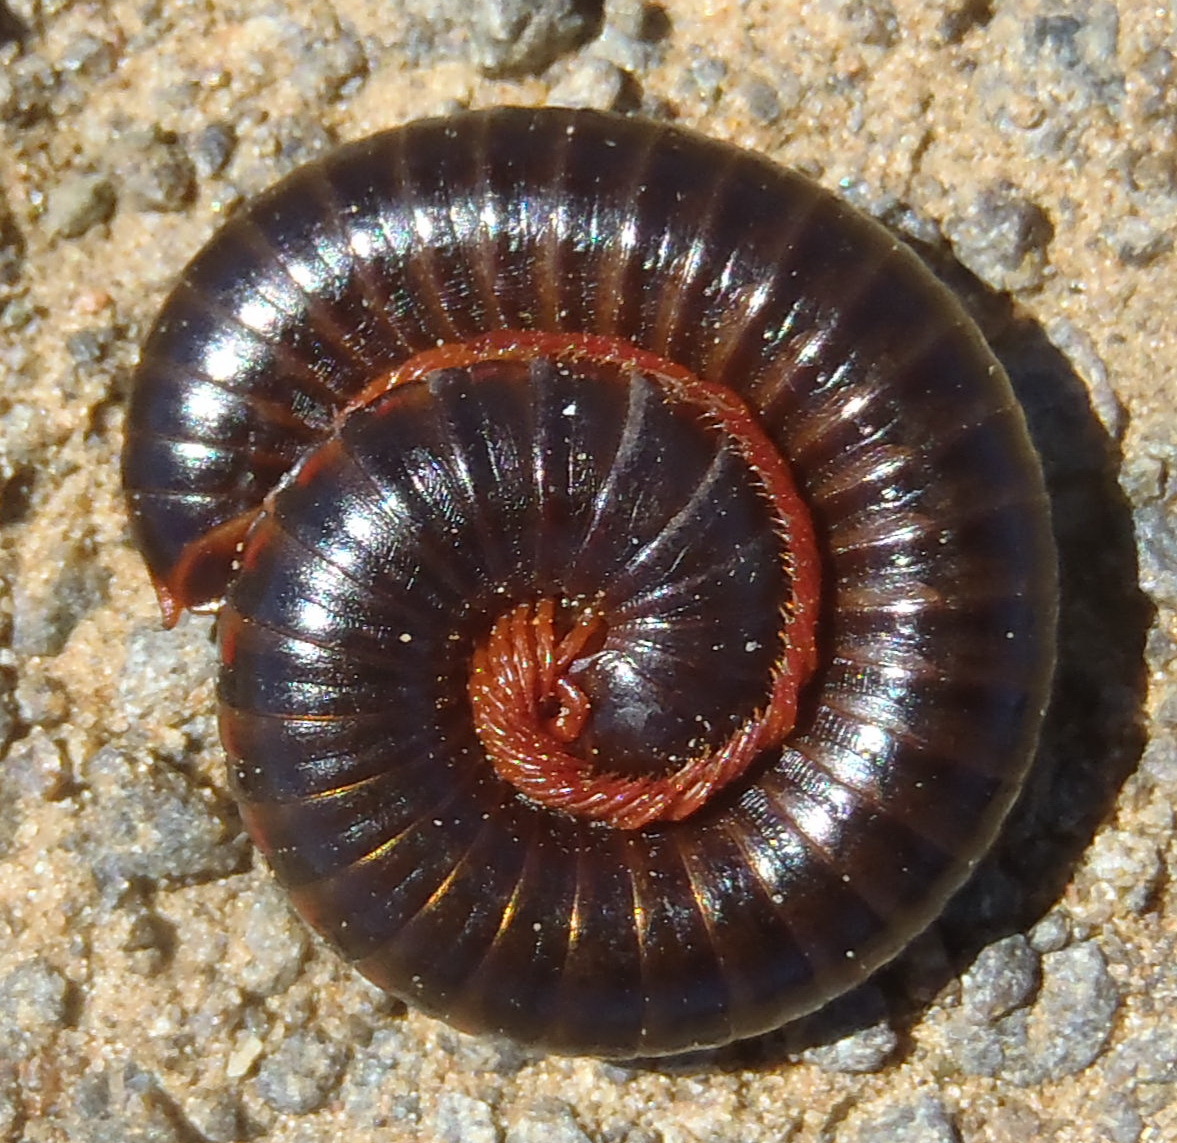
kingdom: Animalia
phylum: Arthropoda
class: Diplopoda
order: Spirostreptida
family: Harpagophoridae
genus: Zinophora
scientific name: Zinophora brevispina
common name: Short-spined large spined millipede
